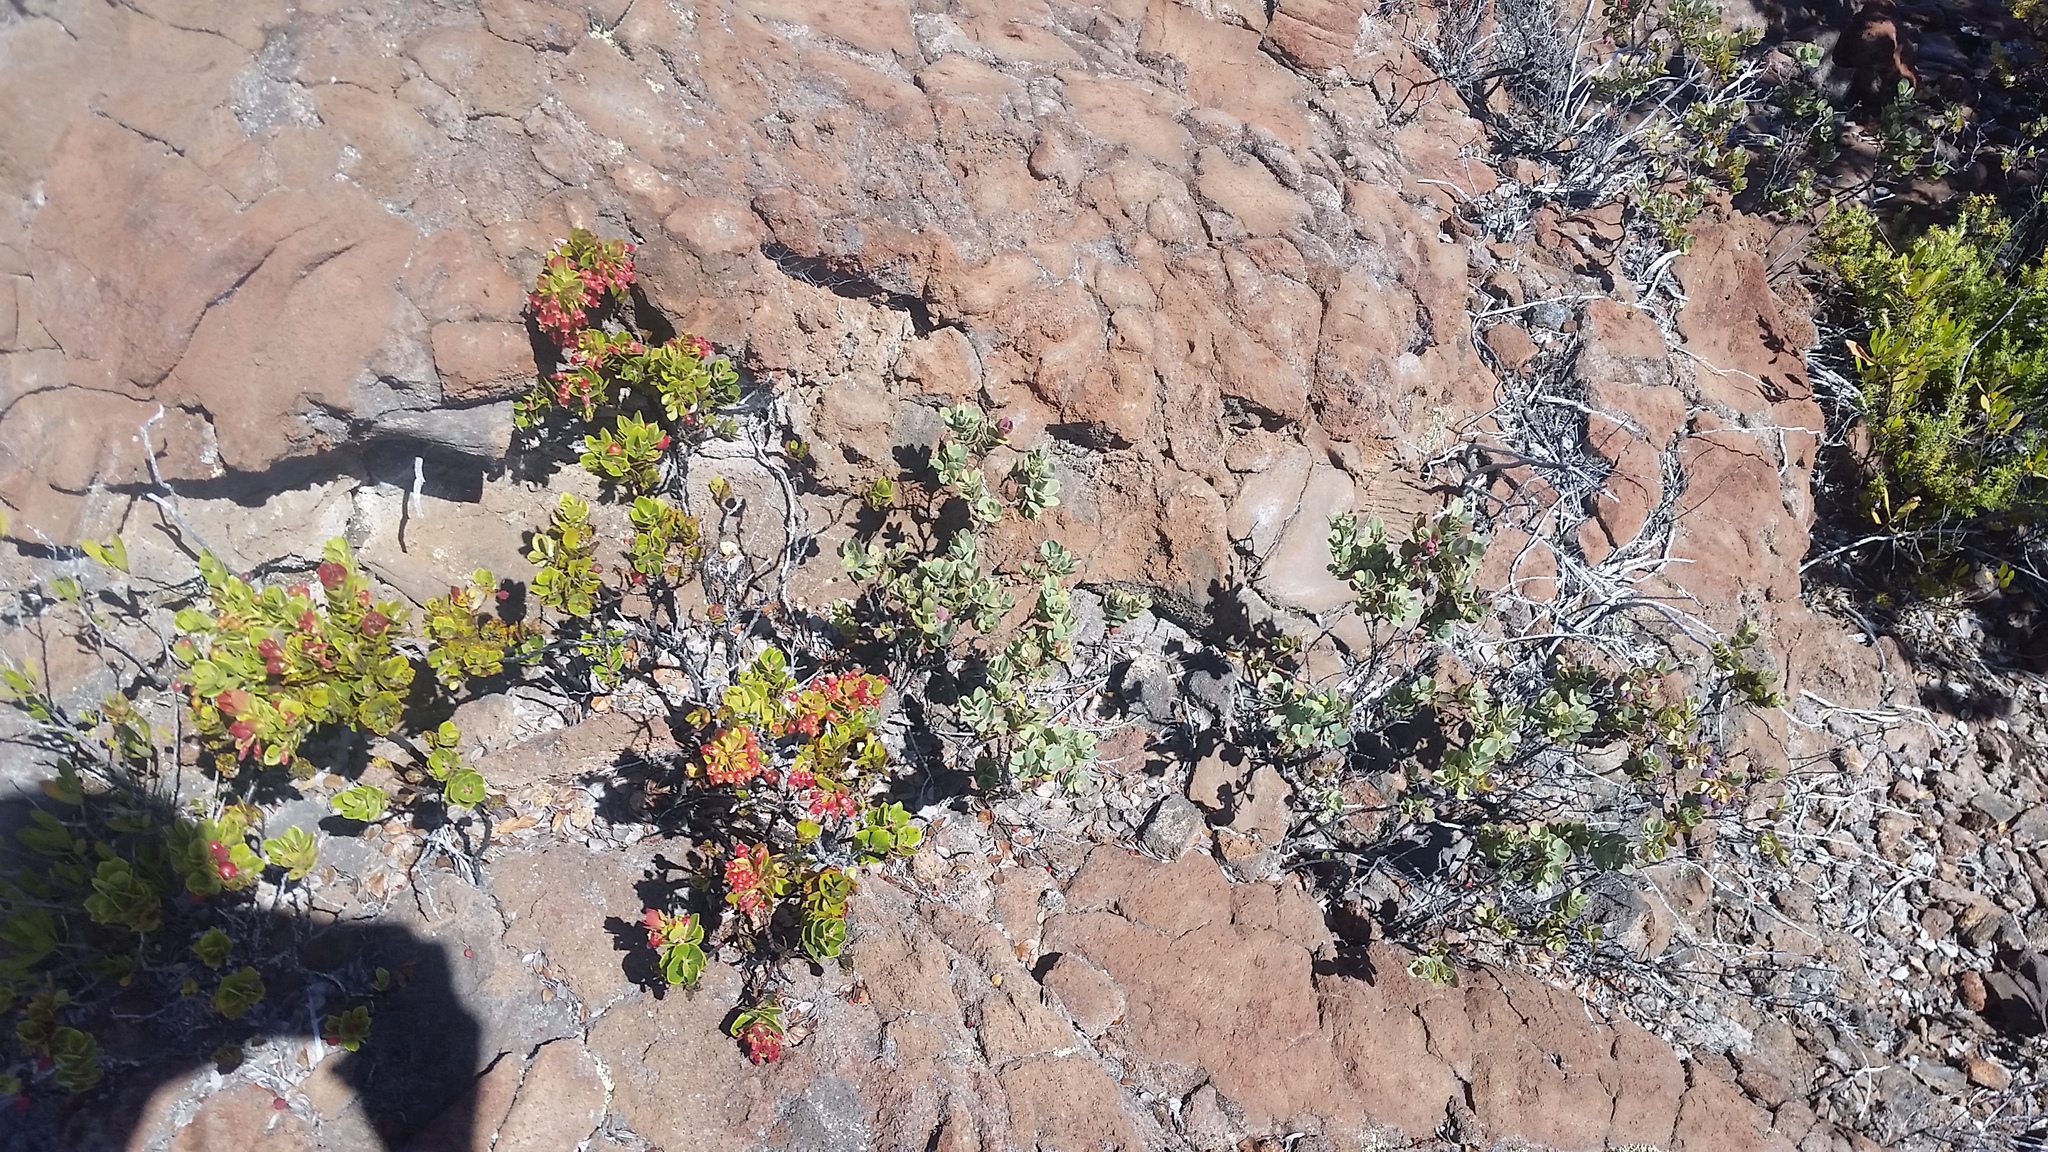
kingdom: Plantae
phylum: Tracheophyta
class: Magnoliopsida
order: Ericales
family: Ericaceae
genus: Vaccinium
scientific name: Vaccinium reticulatum
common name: Ohelo
